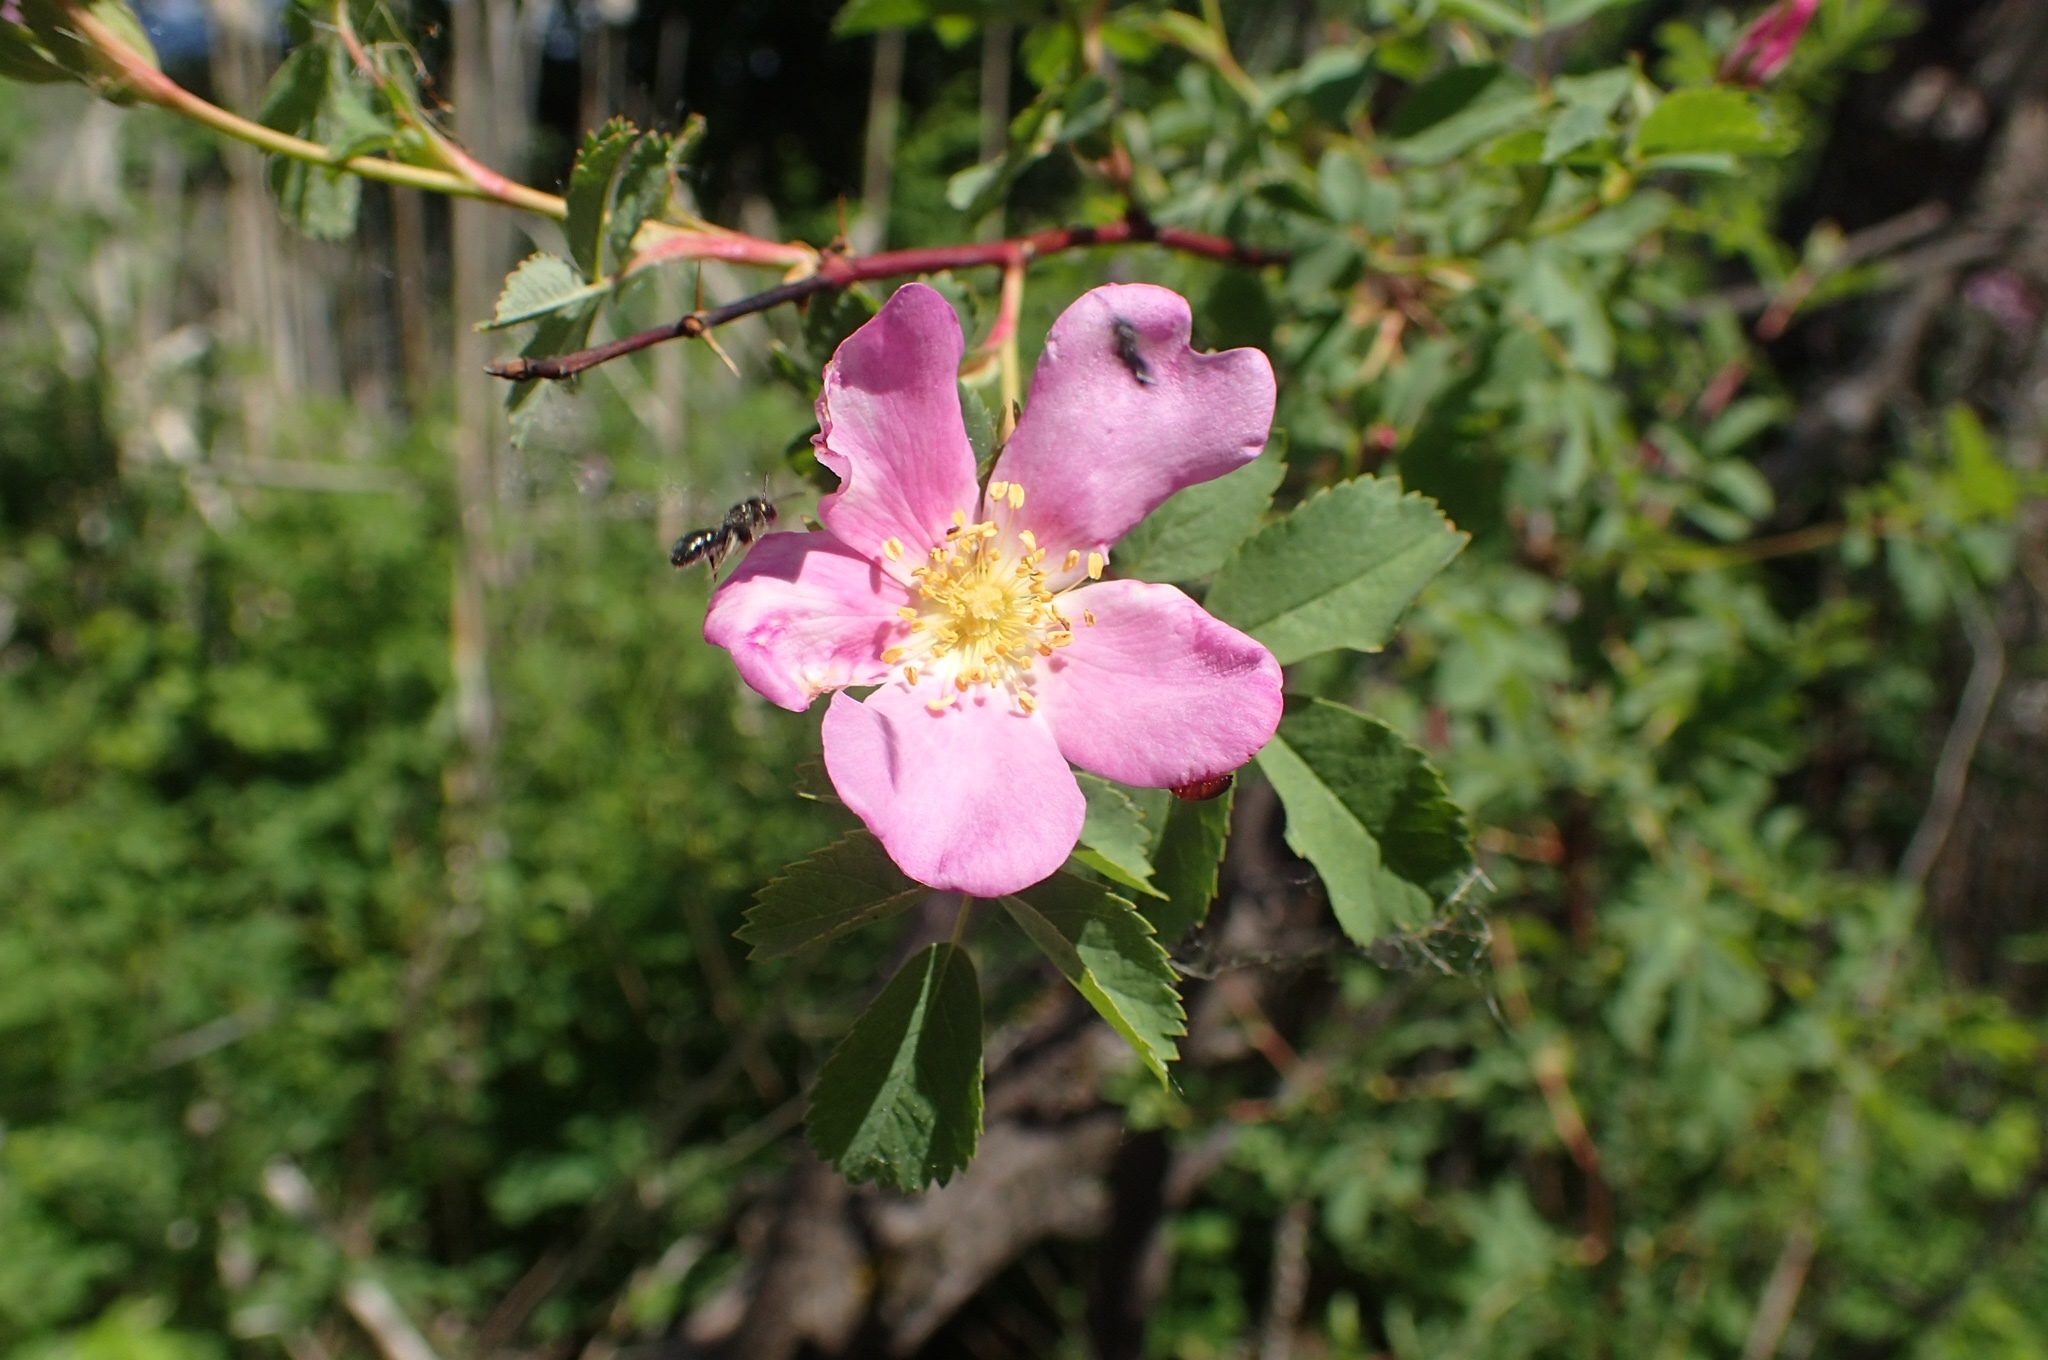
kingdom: Animalia
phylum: Arthropoda
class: Insecta
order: Hymenoptera
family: Apidae
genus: Zadontomerus
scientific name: Zadontomerus
